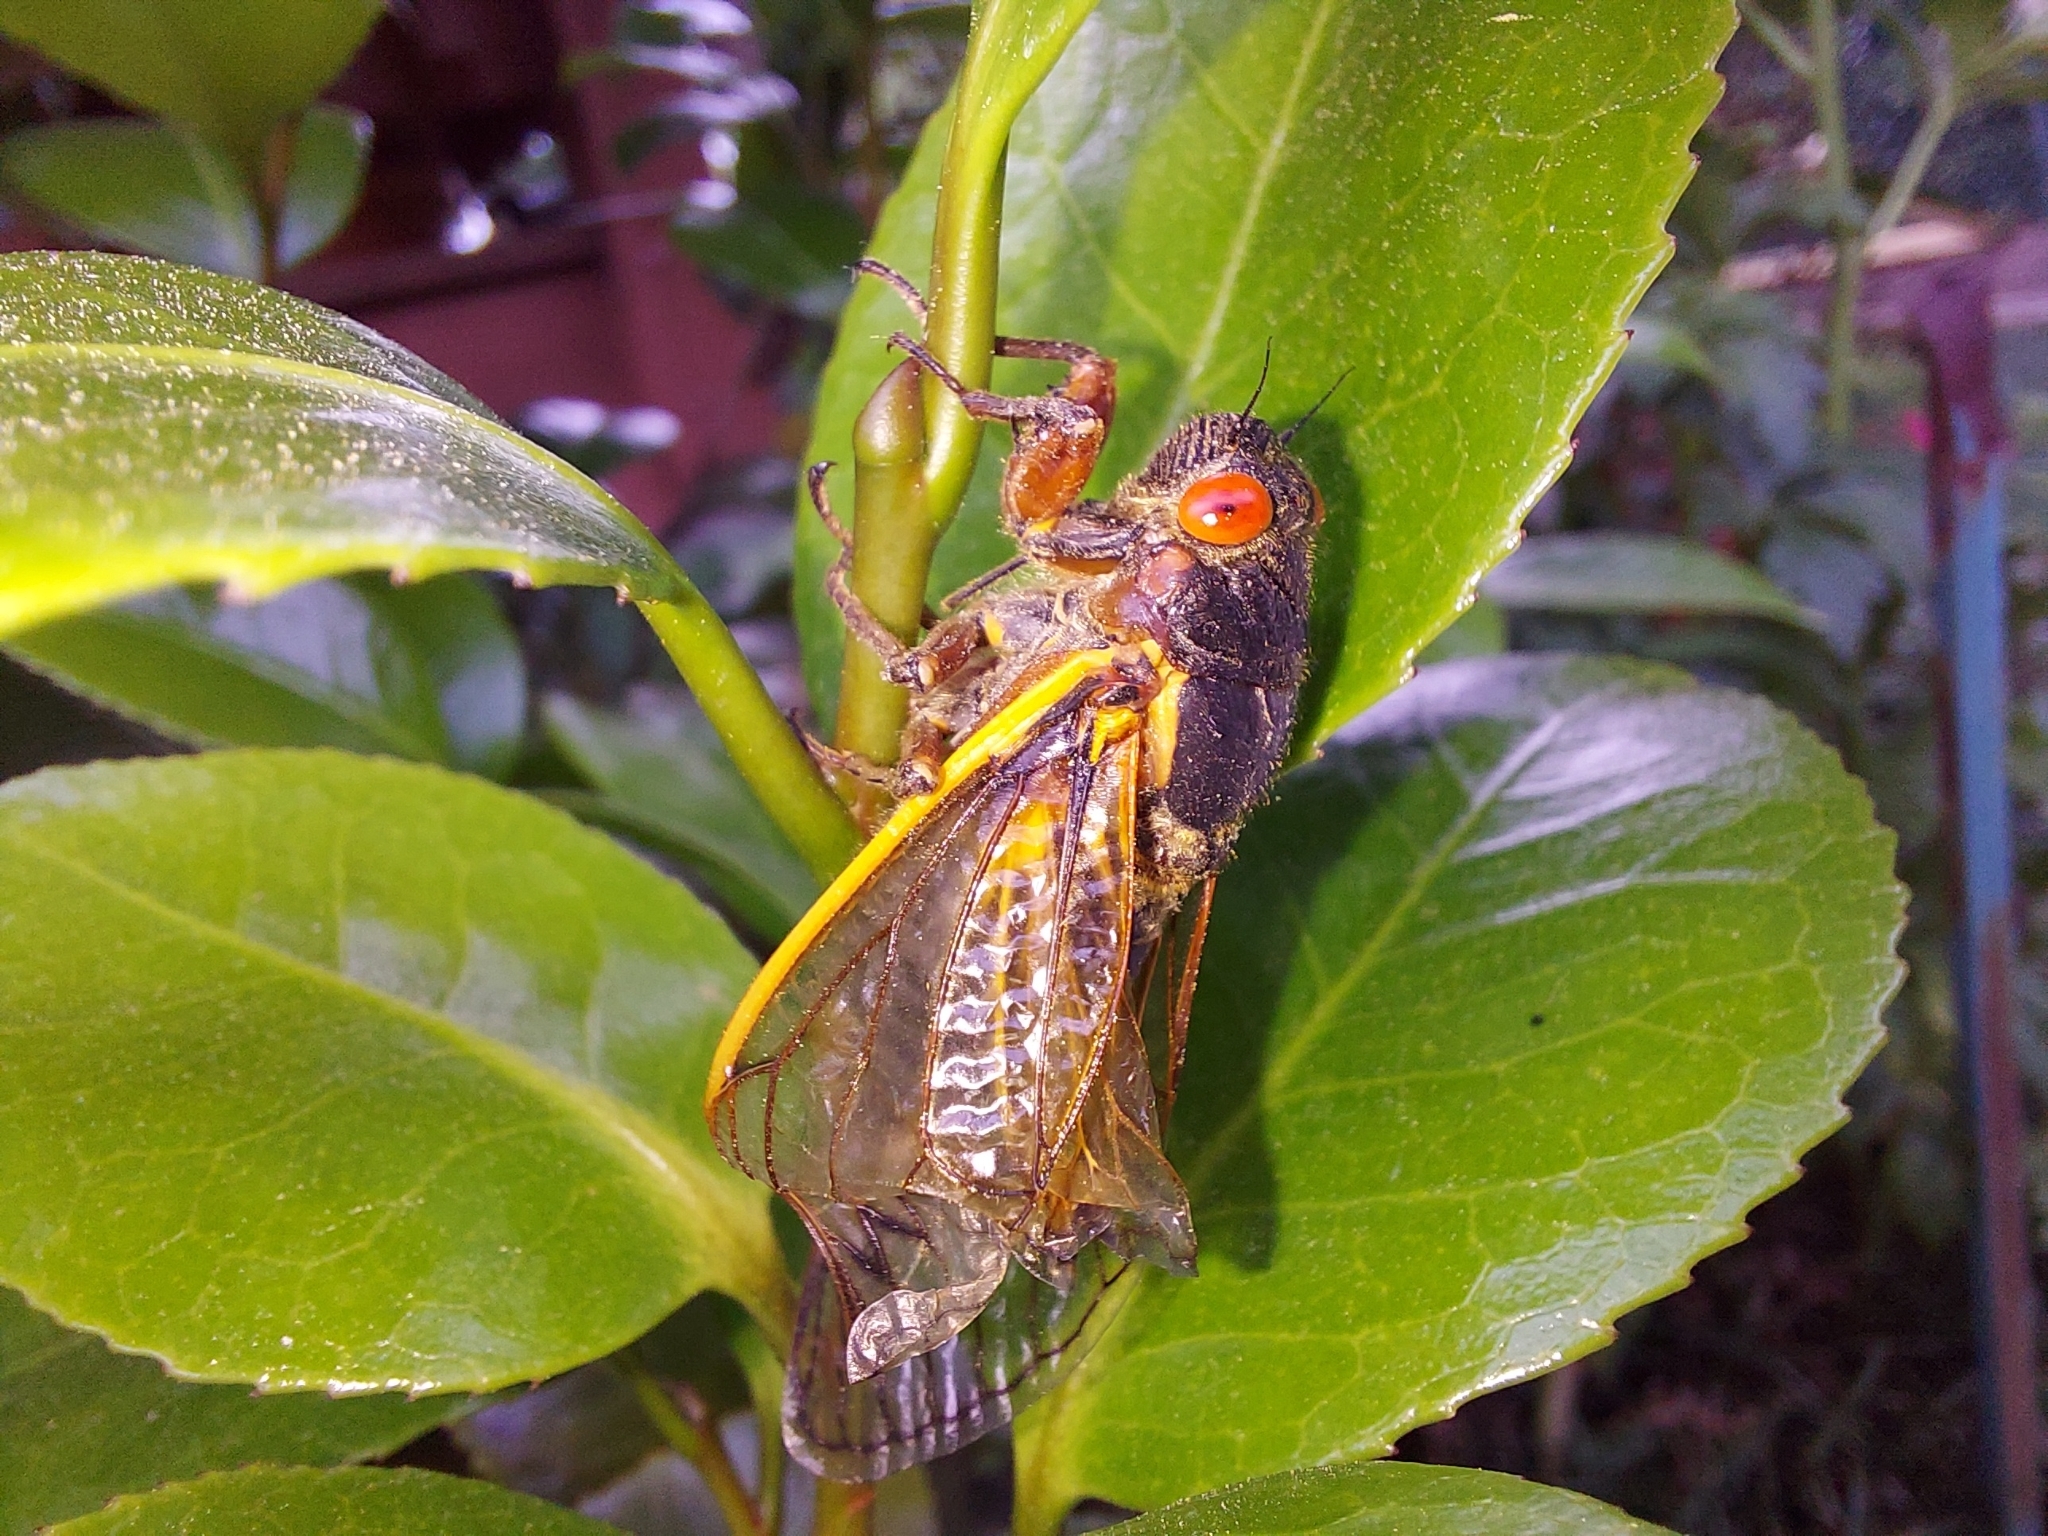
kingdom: Animalia
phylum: Arthropoda
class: Insecta
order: Hemiptera
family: Cicadidae
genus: Magicicada
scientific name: Magicicada septendecim
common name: Periodical cicada
